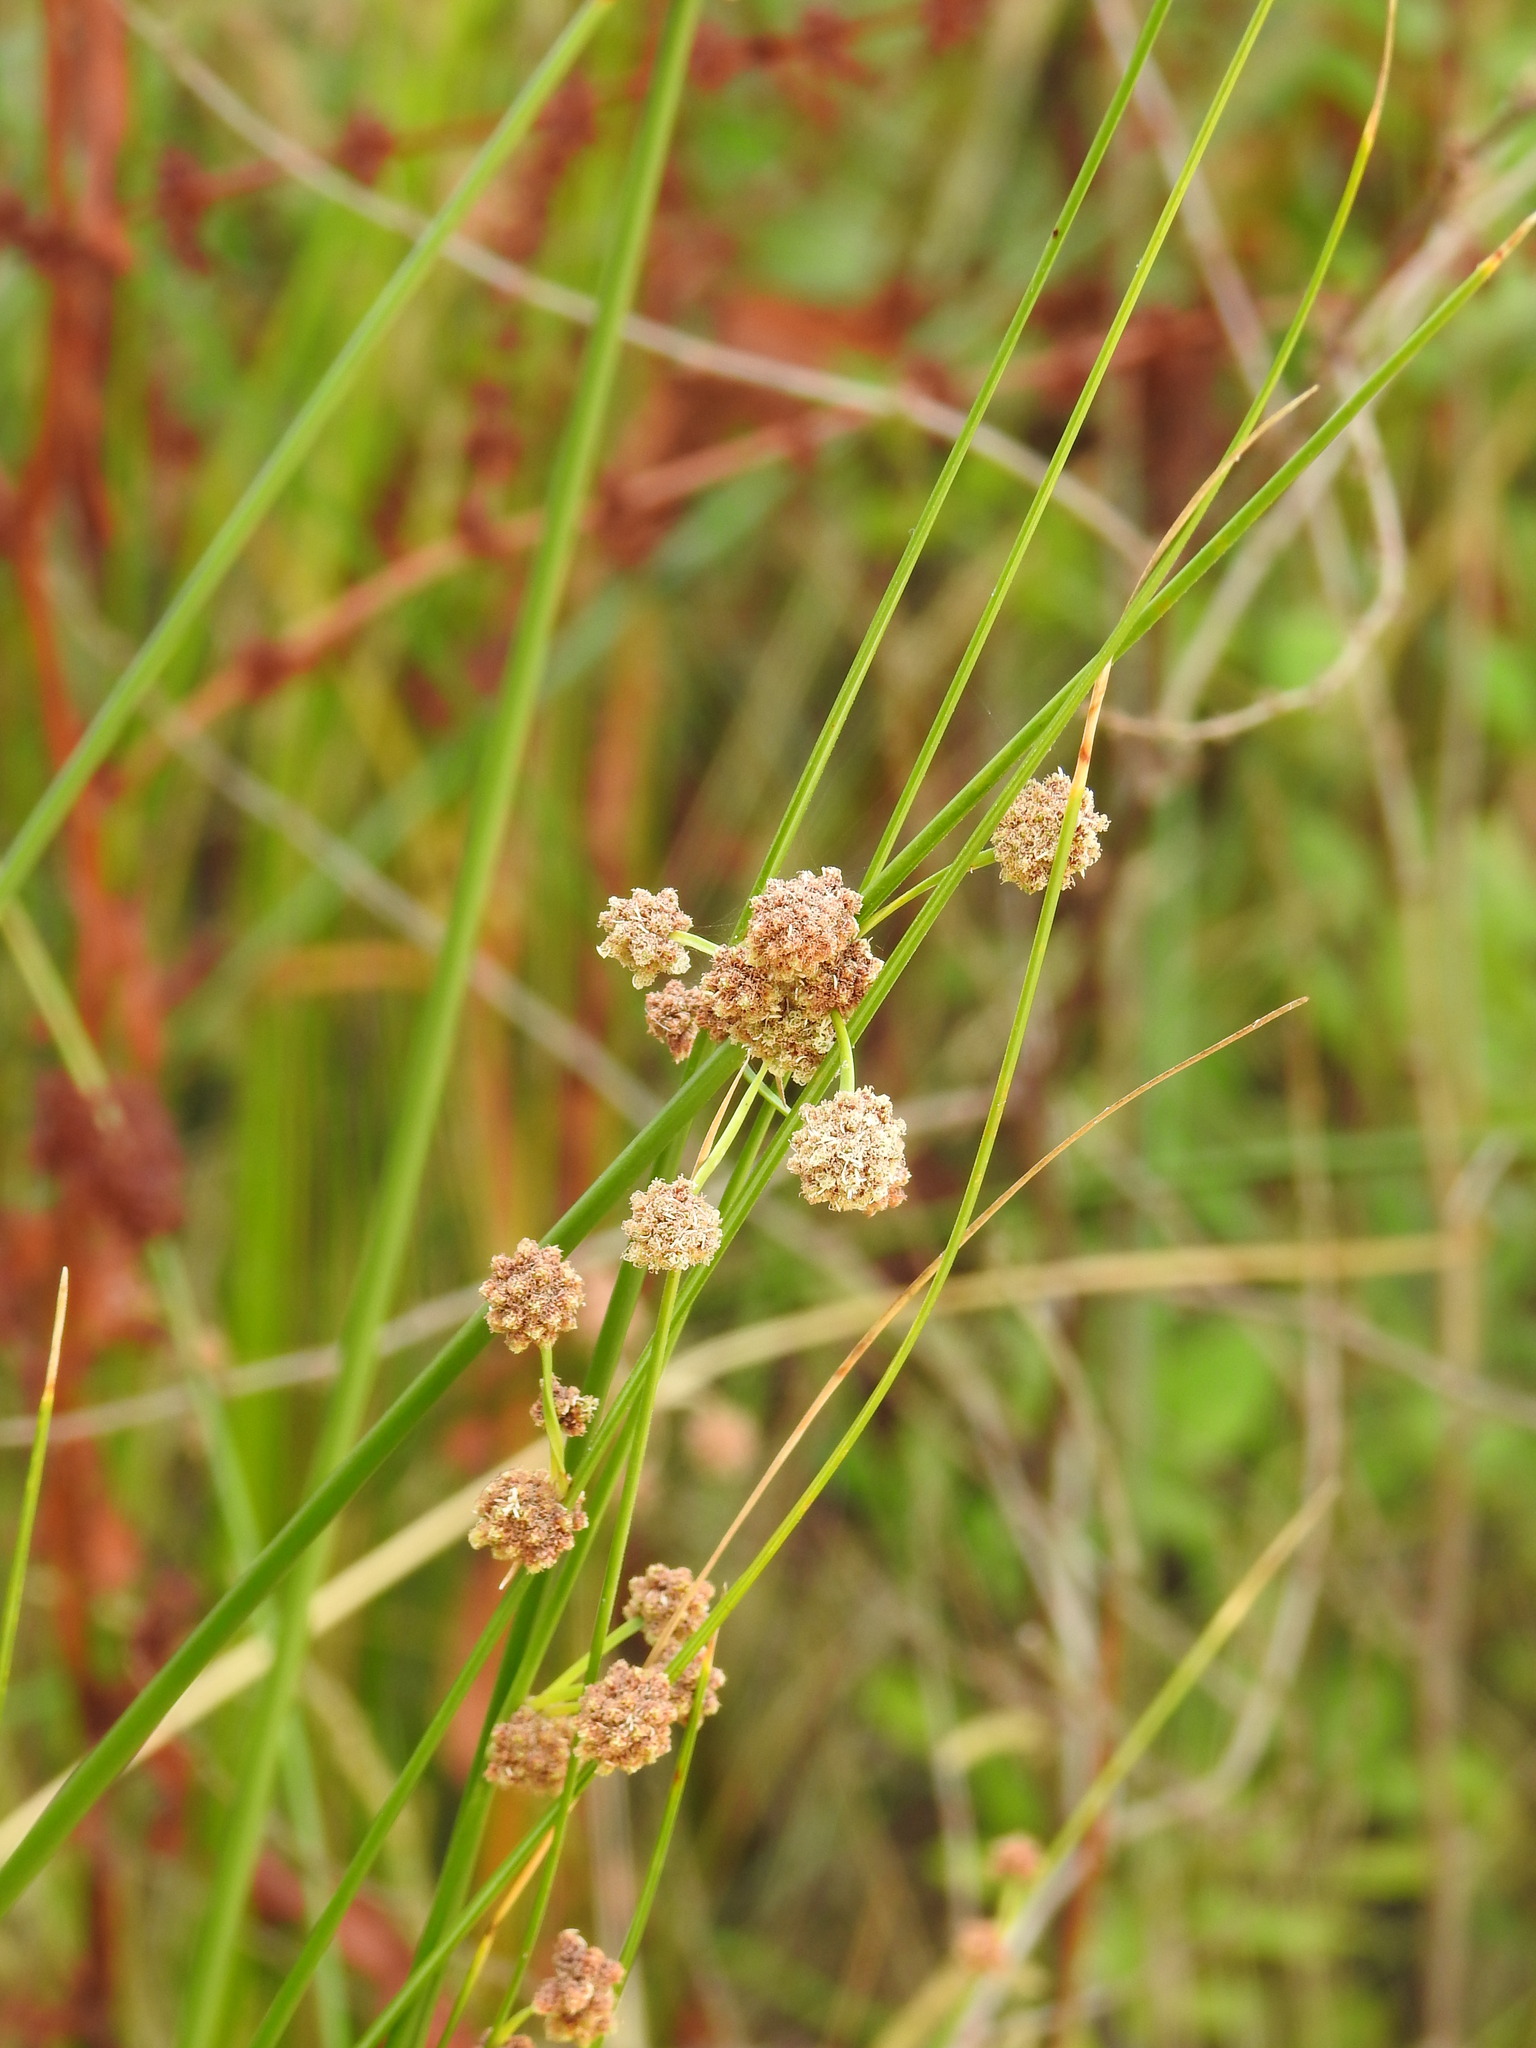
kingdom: Plantae
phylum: Tracheophyta
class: Liliopsida
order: Poales
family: Cyperaceae
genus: Scirpoides
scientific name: Scirpoides holoschoenus
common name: Round-headed club-rush
